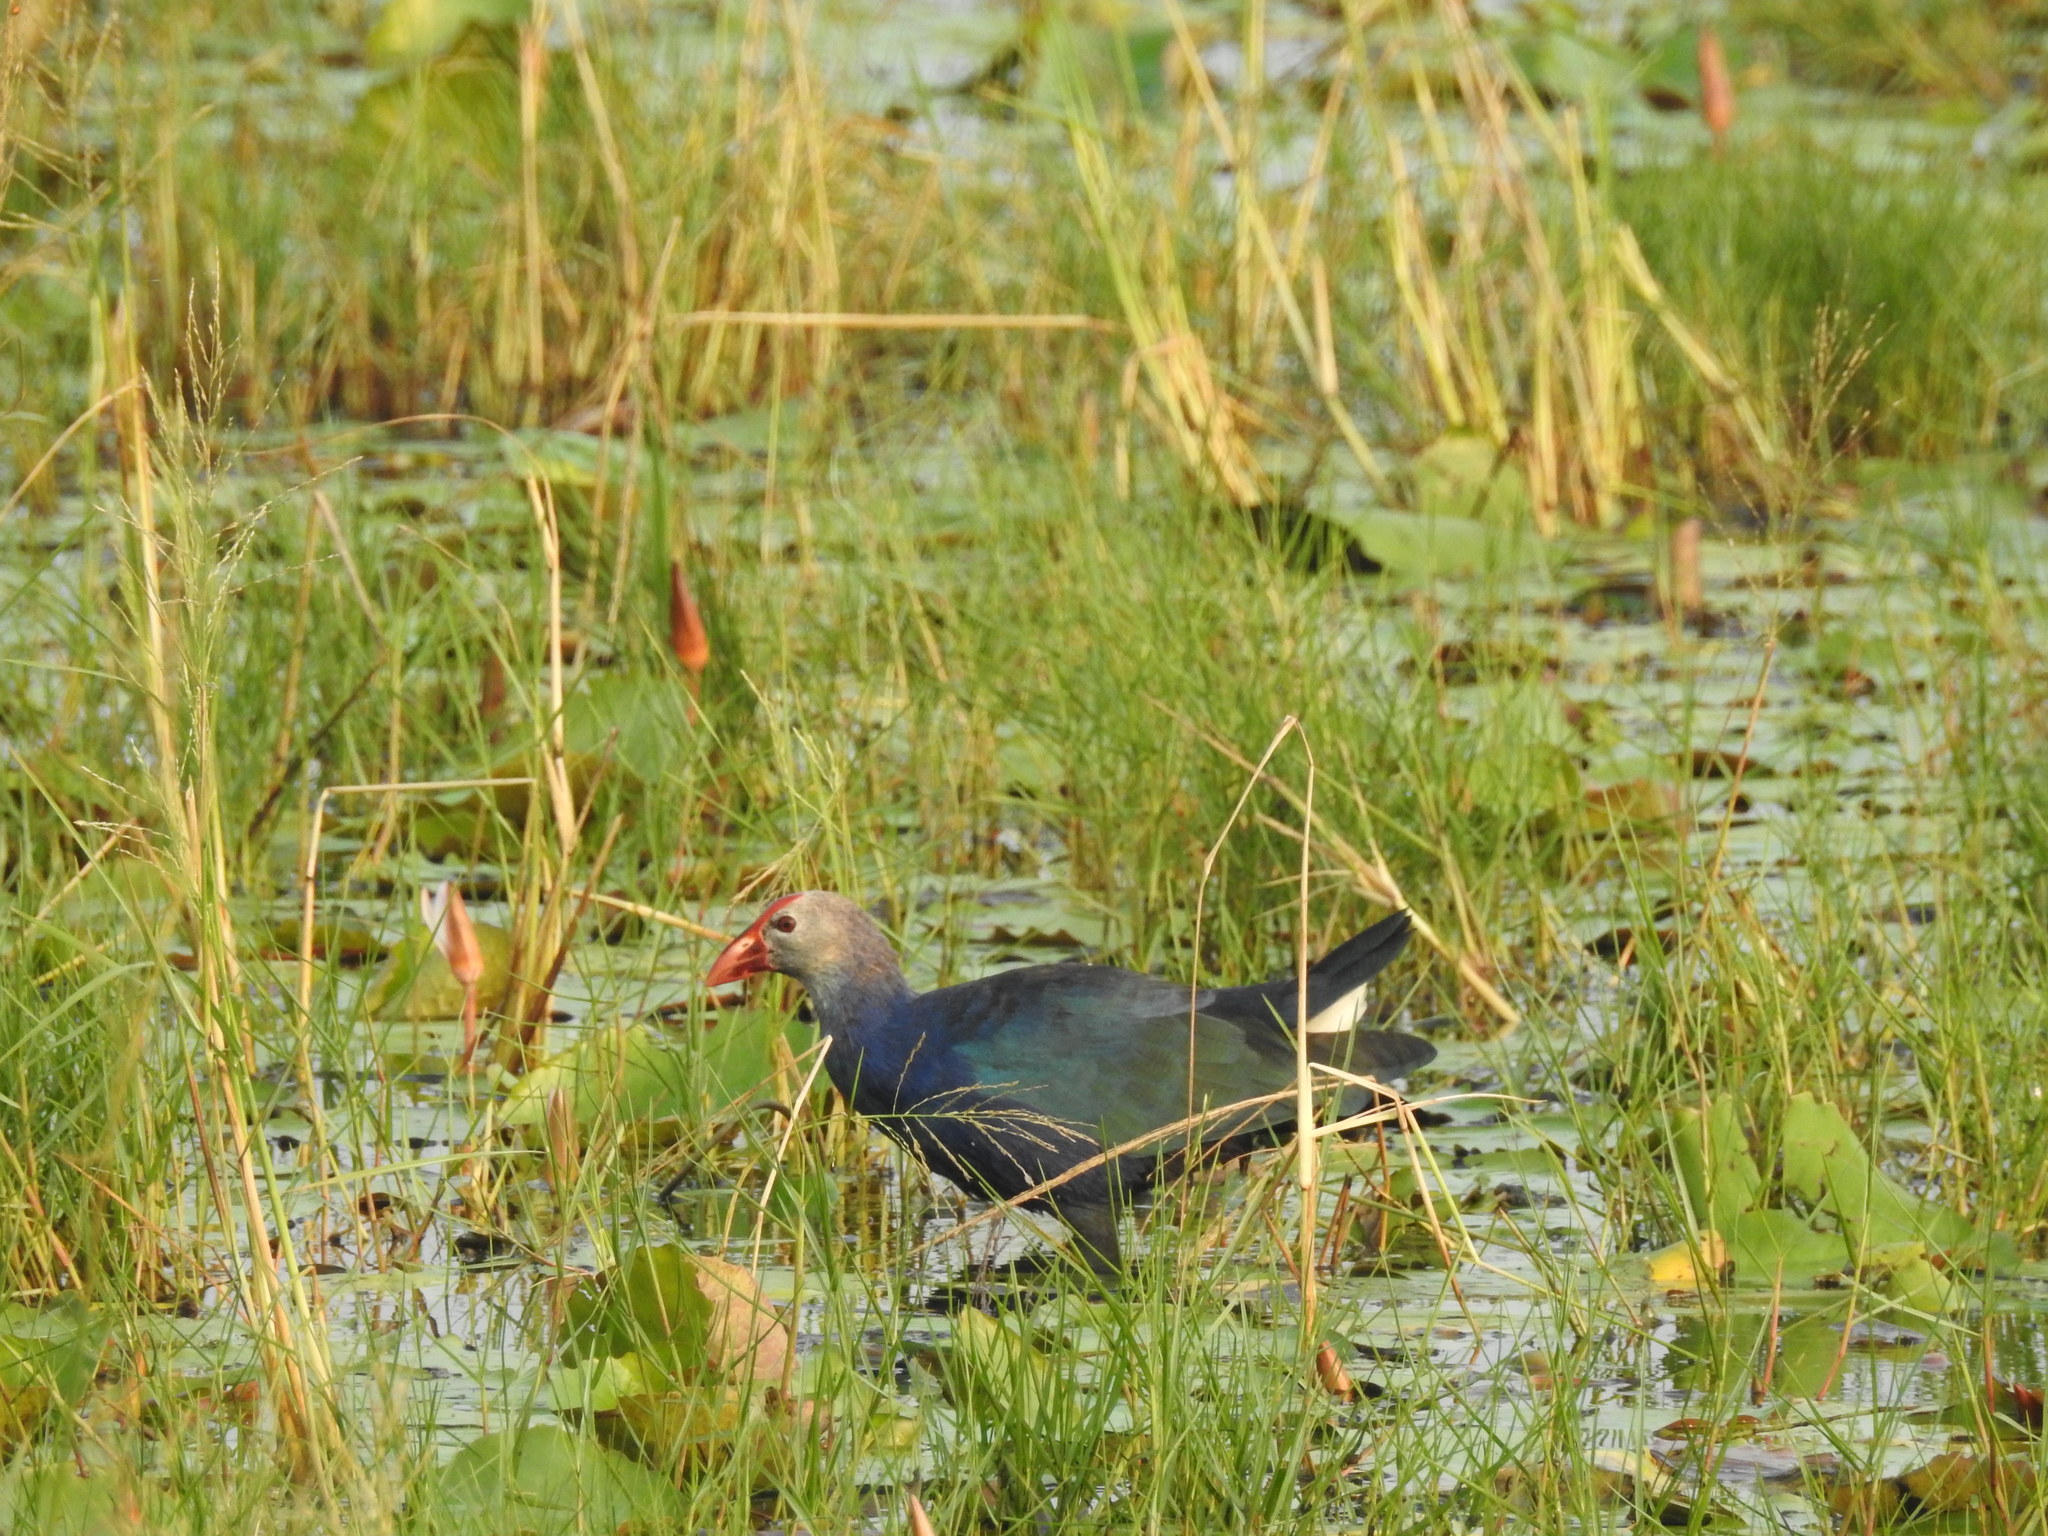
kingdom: Animalia
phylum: Chordata
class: Aves
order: Gruiformes
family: Rallidae
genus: Porphyrio
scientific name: Porphyrio porphyrio
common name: Purple swamphen
